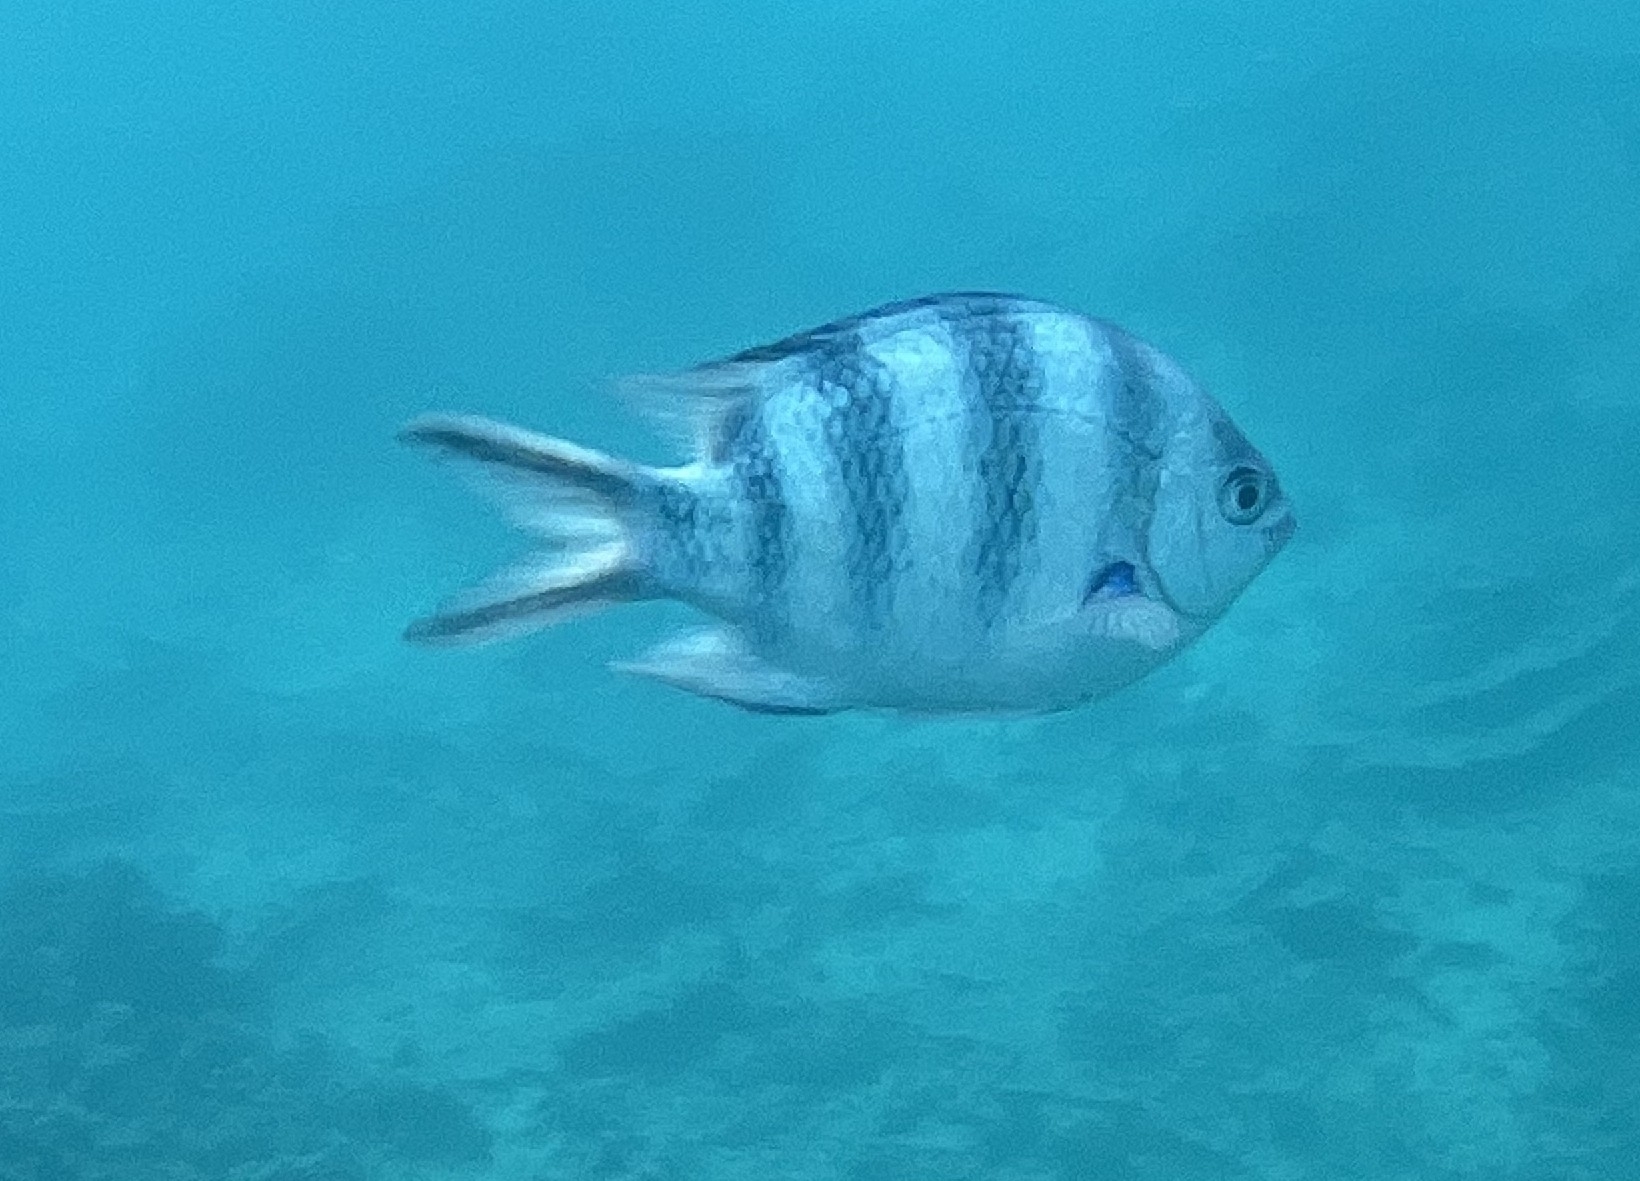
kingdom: Animalia
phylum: Chordata
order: Perciformes
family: Pomacentridae
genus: Abudefduf
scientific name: Abudefduf sexfasciatus
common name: Scissortail sergeant
